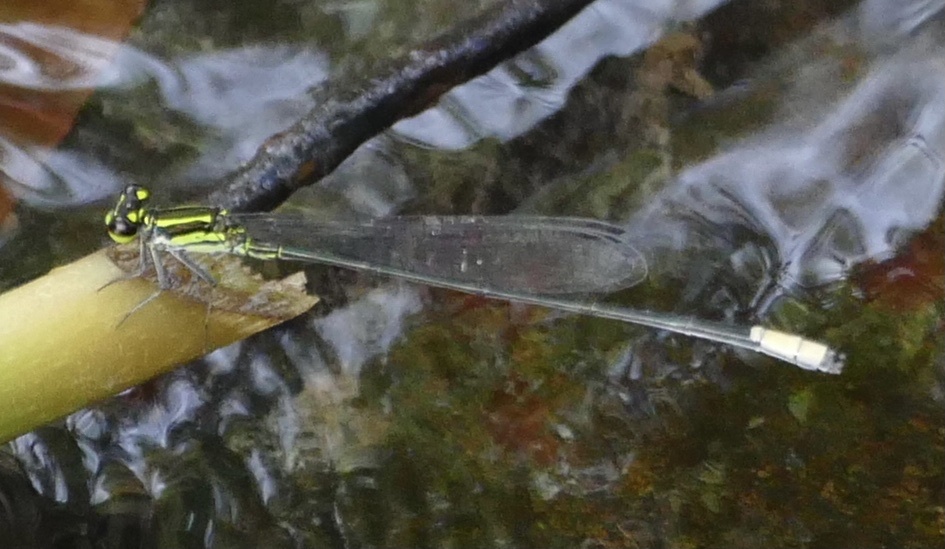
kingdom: Animalia
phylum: Arthropoda
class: Insecta
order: Odonata
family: Coenagrionidae
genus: Pseudagrion
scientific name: Pseudagrion melanicterum
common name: Farmbush sprite
